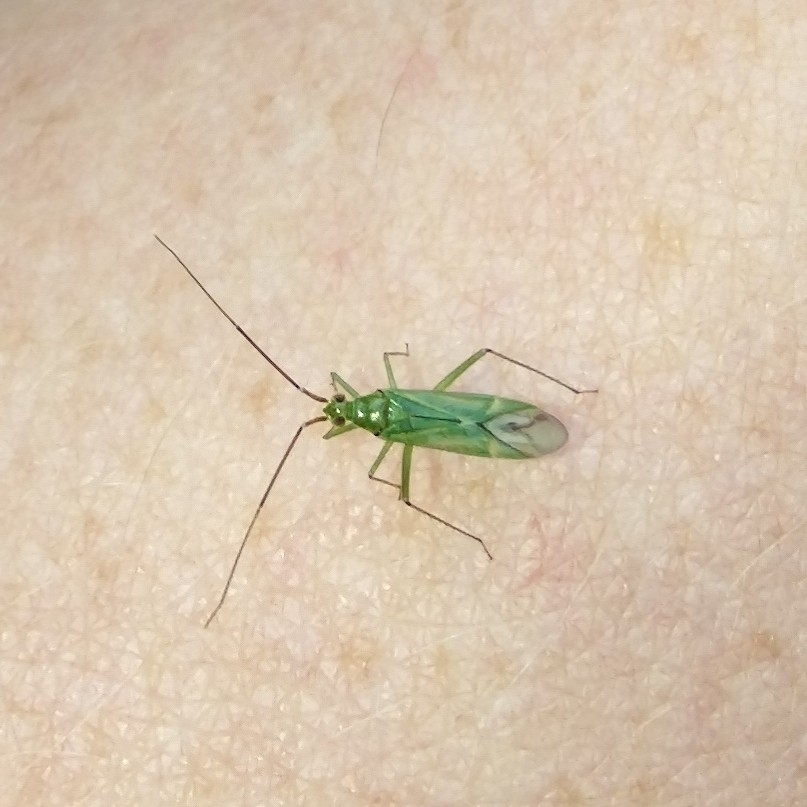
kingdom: Animalia
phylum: Arthropoda
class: Insecta
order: Hemiptera
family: Miridae
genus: Blepharidopterus
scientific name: Blepharidopterus angulatus
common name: Plant bug
